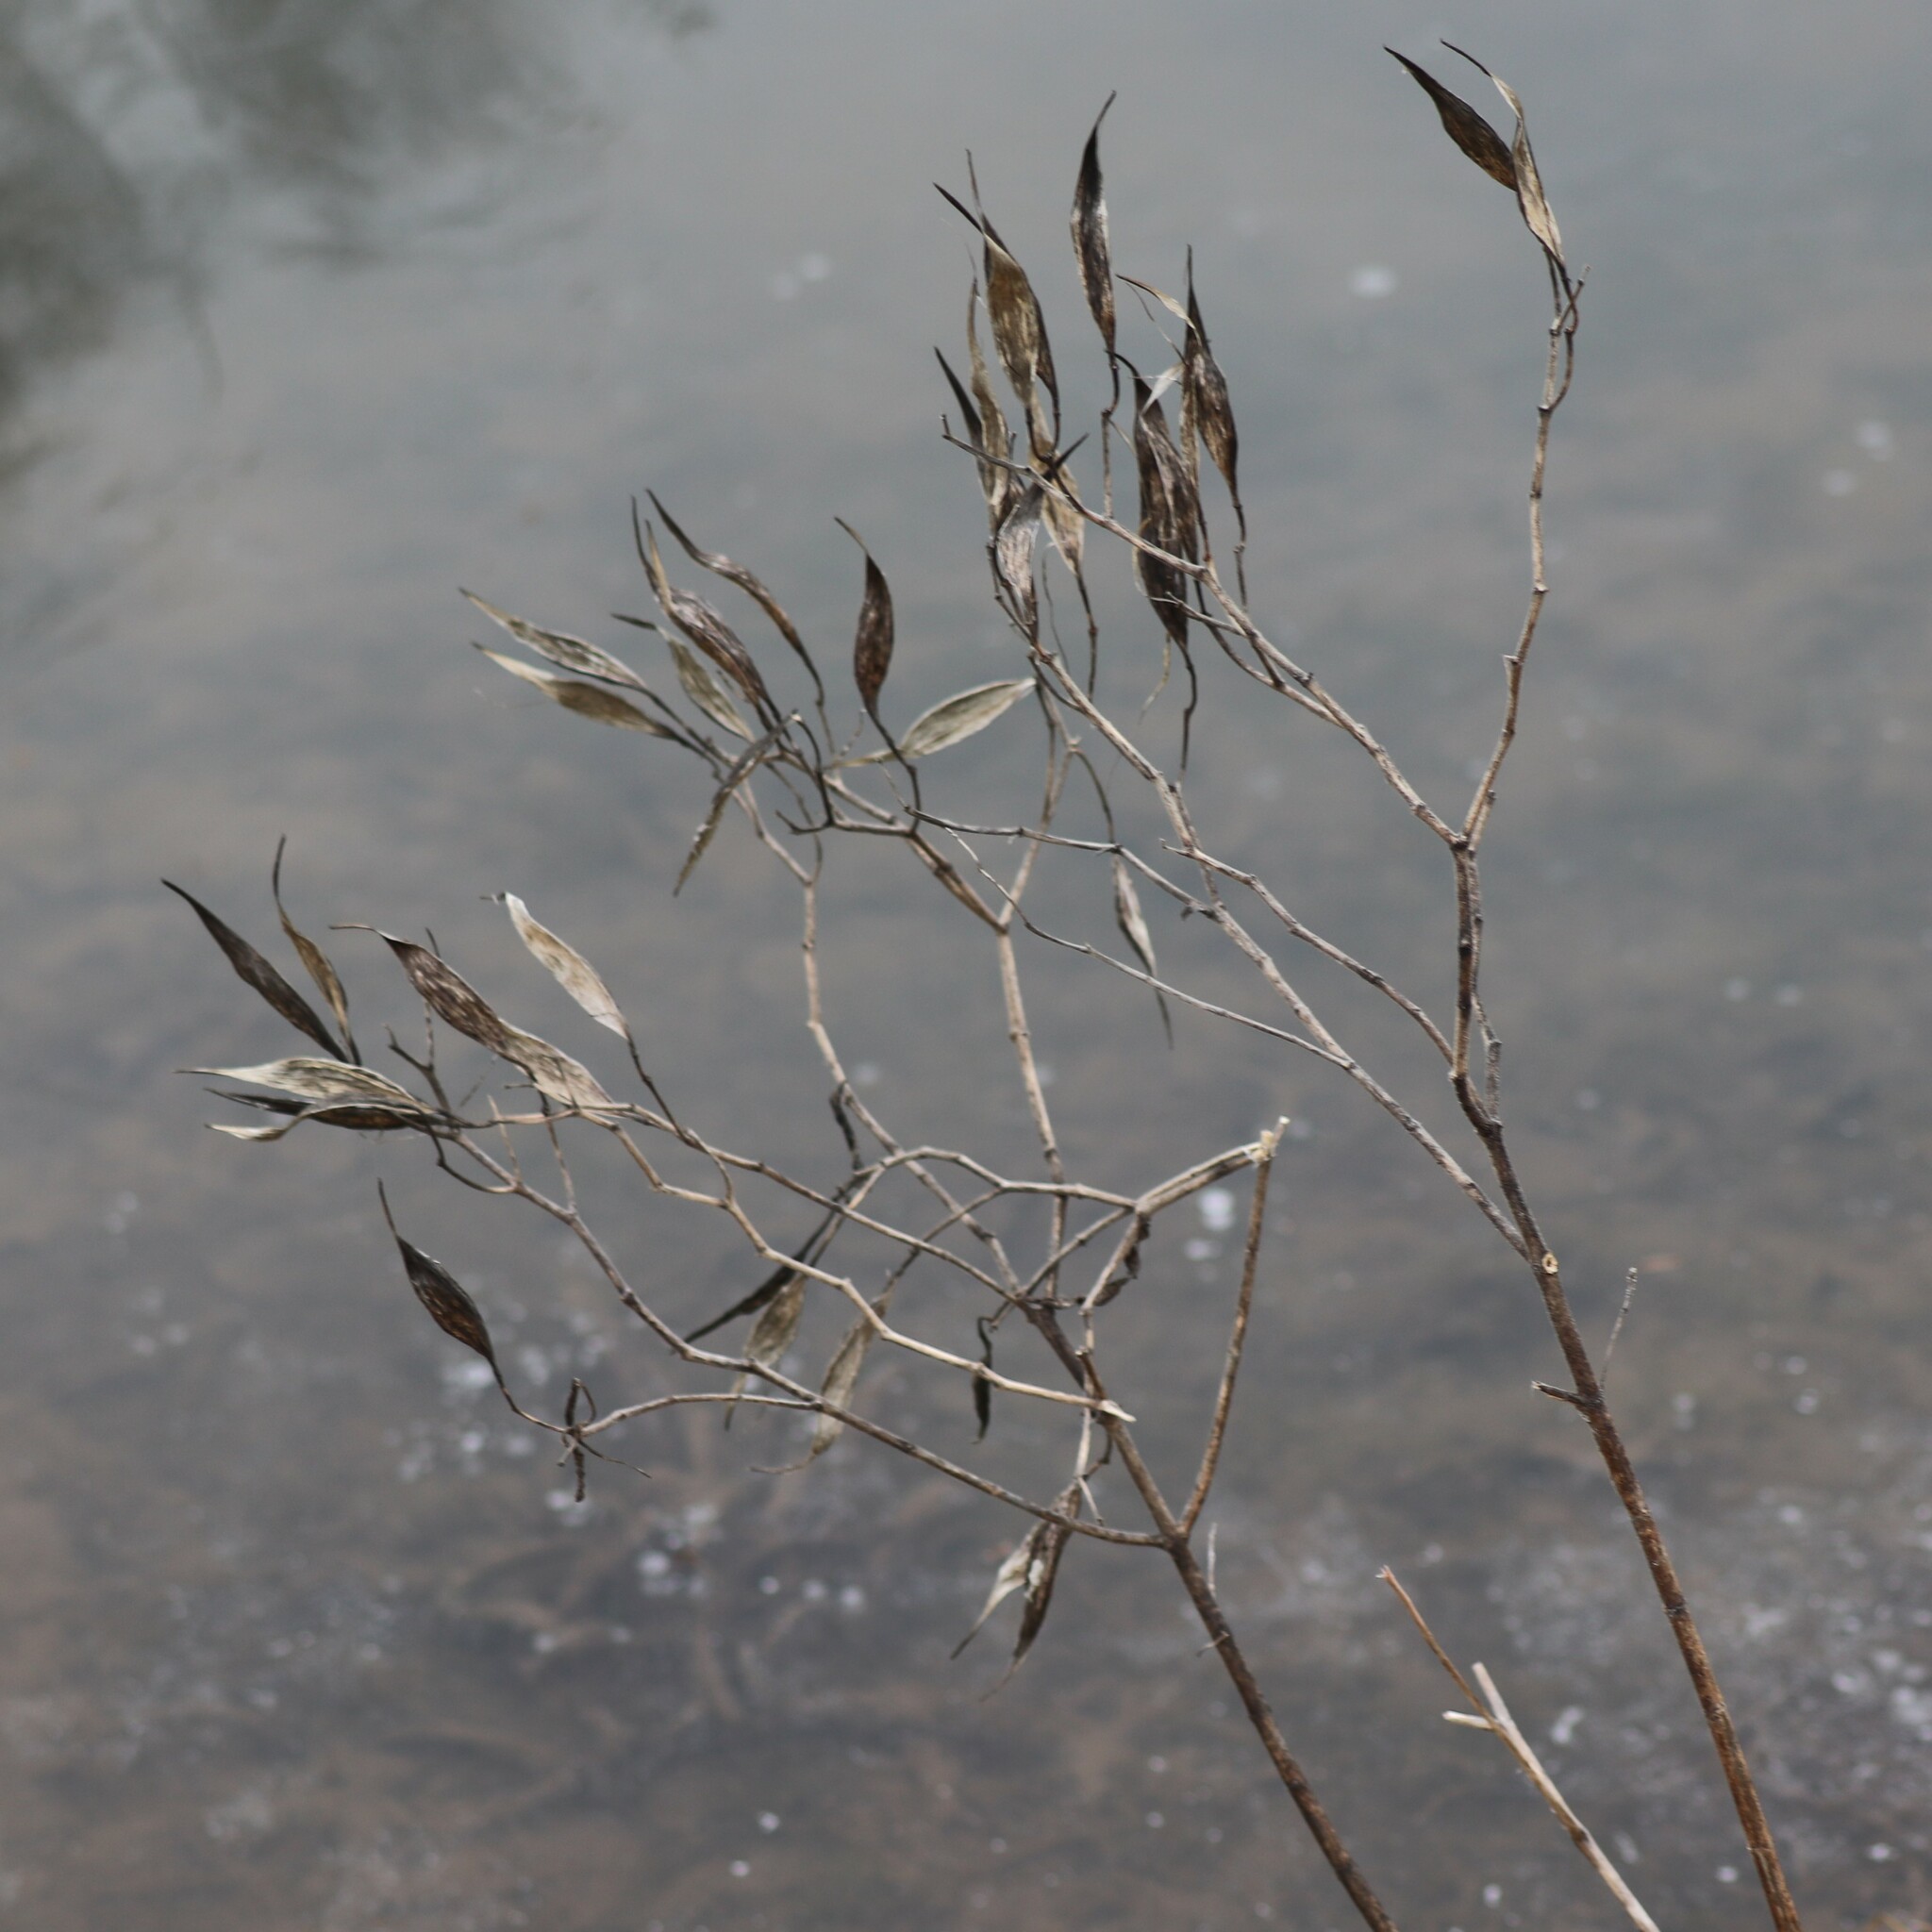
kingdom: Plantae
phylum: Tracheophyta
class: Magnoliopsida
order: Gentianales
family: Apocynaceae
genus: Asclepias
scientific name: Asclepias incarnata
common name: Swamp milkweed
